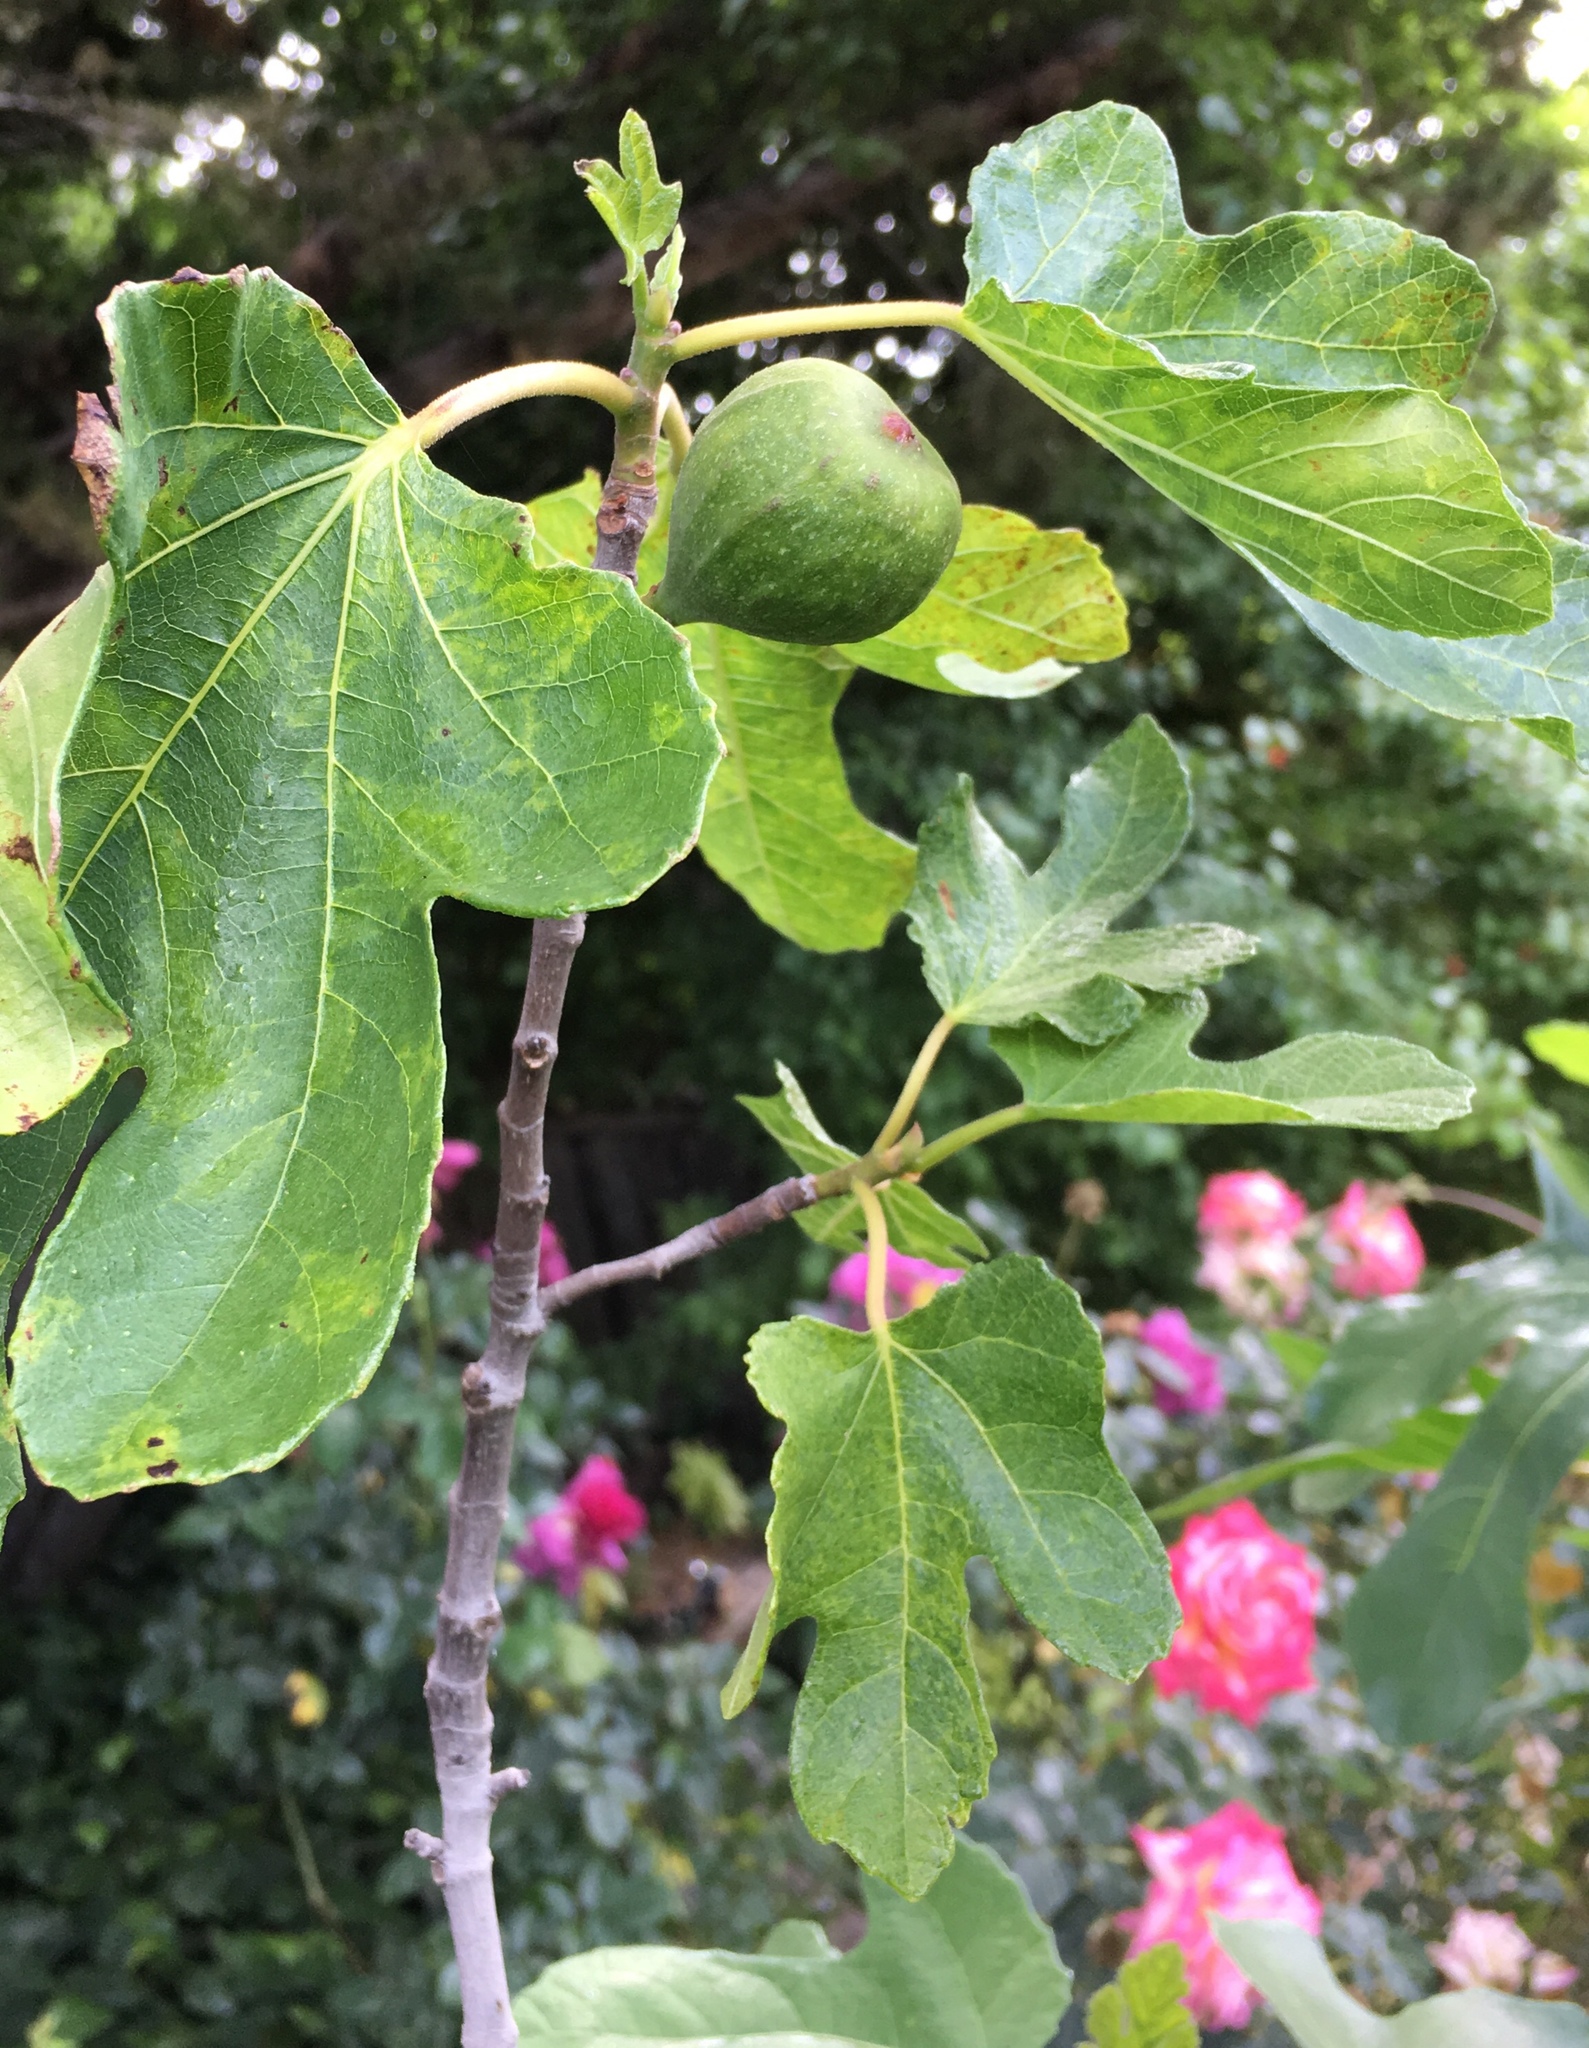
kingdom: Plantae
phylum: Tracheophyta
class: Magnoliopsida
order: Rosales
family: Moraceae
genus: Ficus
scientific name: Ficus carica
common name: Fig
